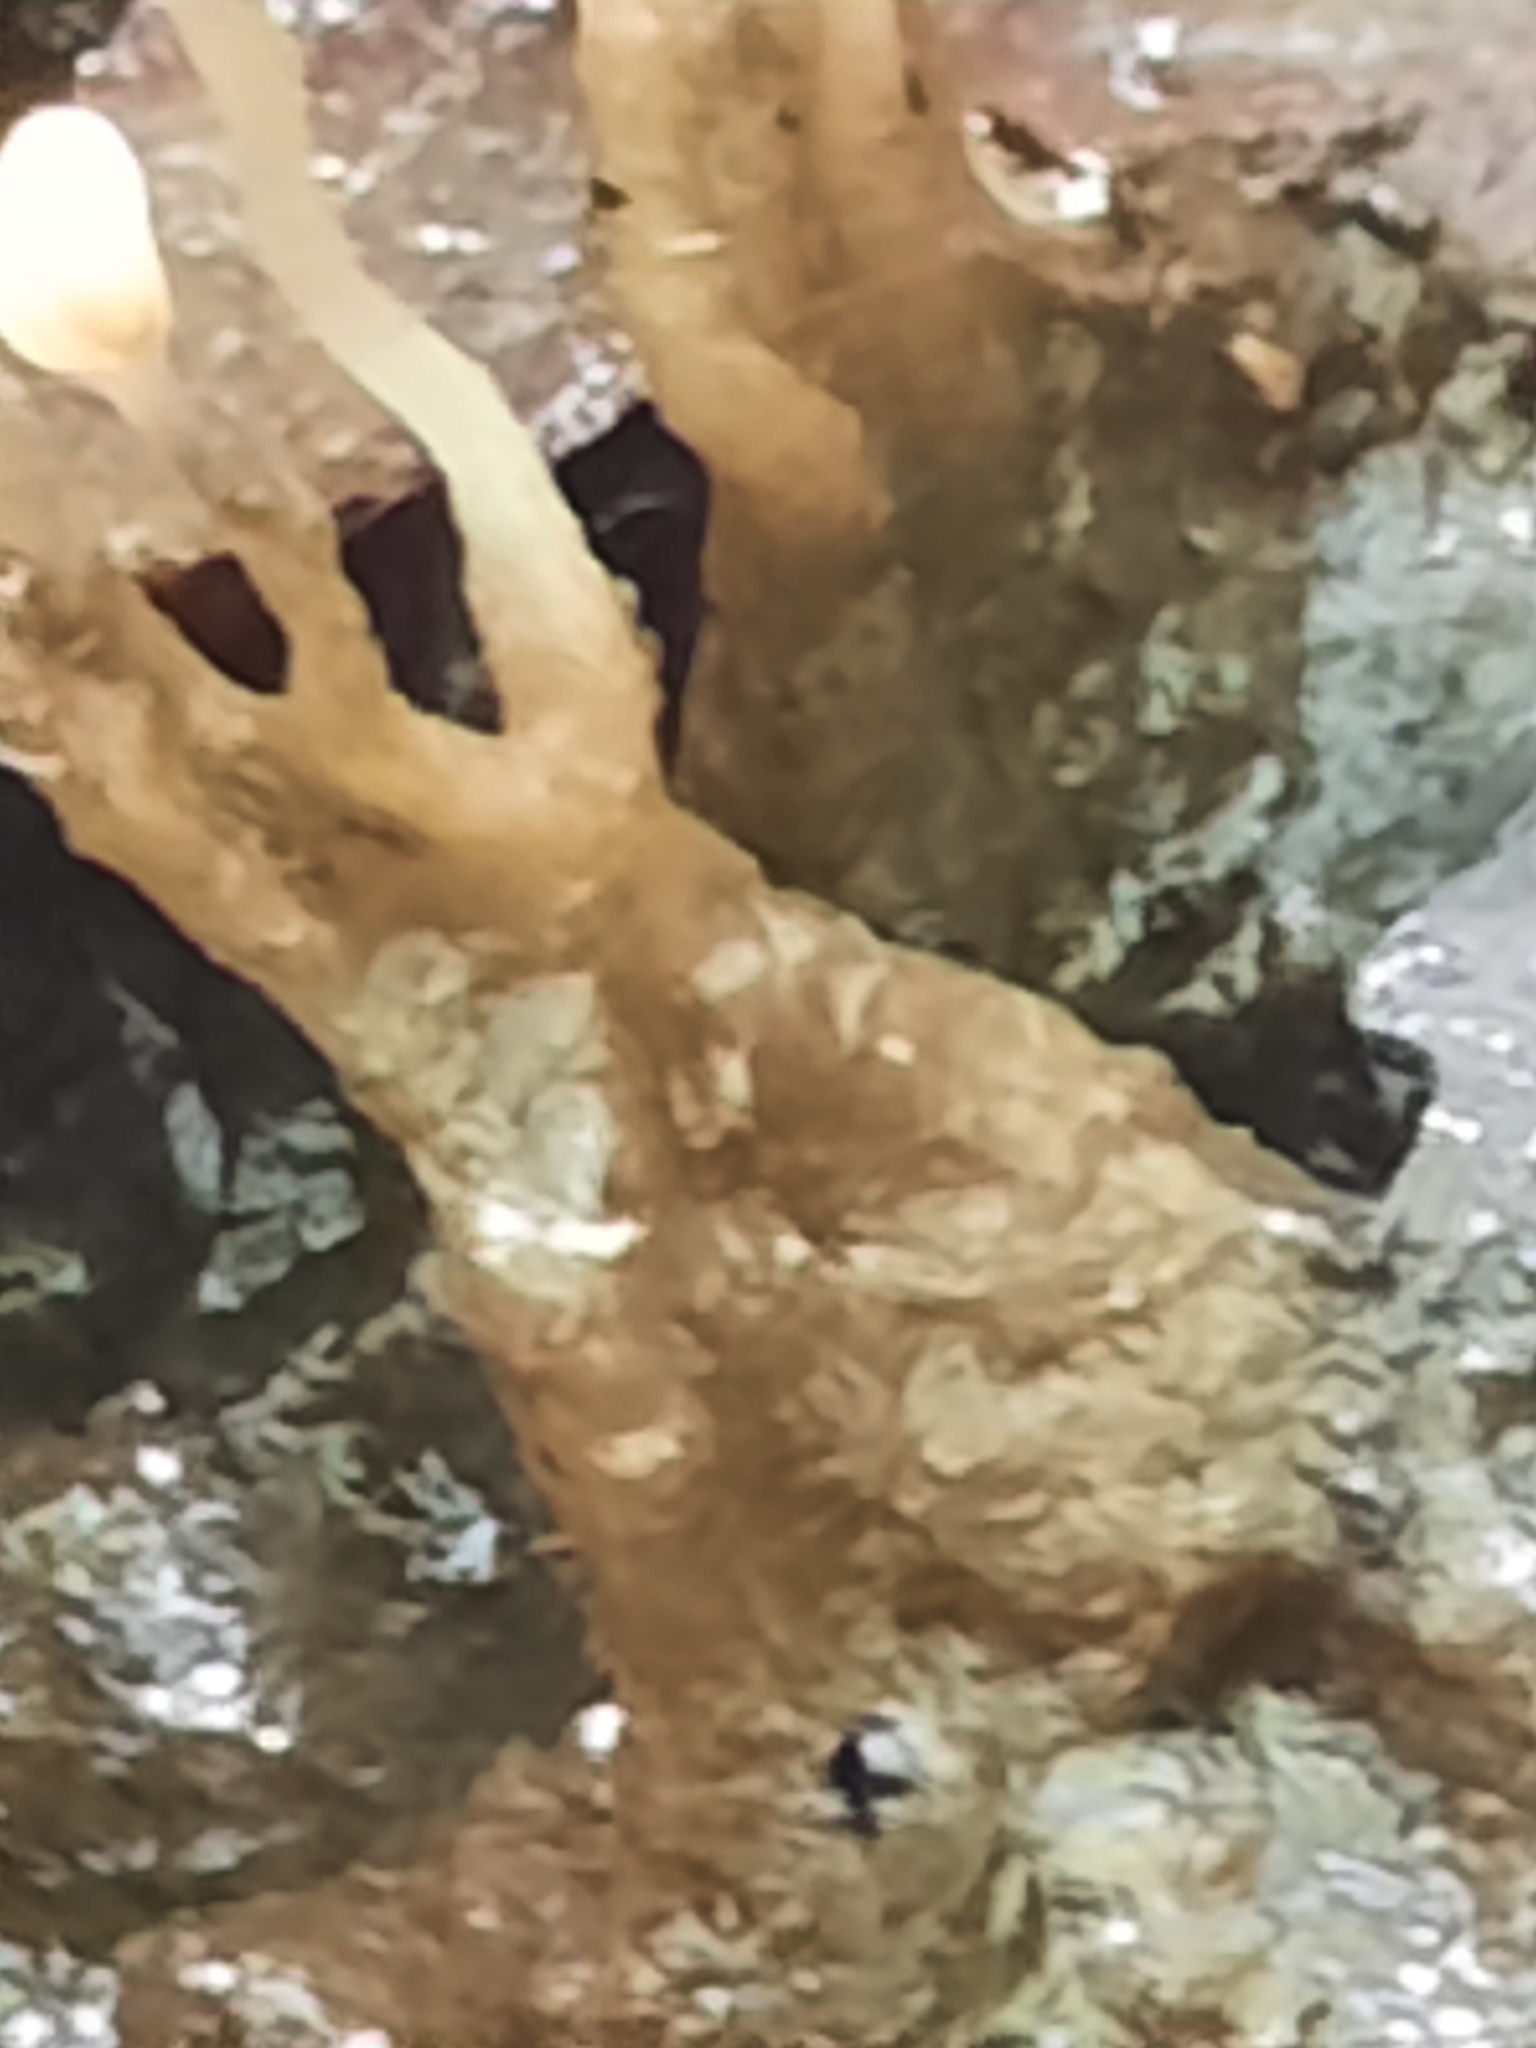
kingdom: Fungi
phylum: Ascomycota
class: Leotiomycetes
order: Helotiales
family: Sclerotiniaceae
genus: Mitrula
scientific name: Mitrula elegans
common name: Swamp beacon
